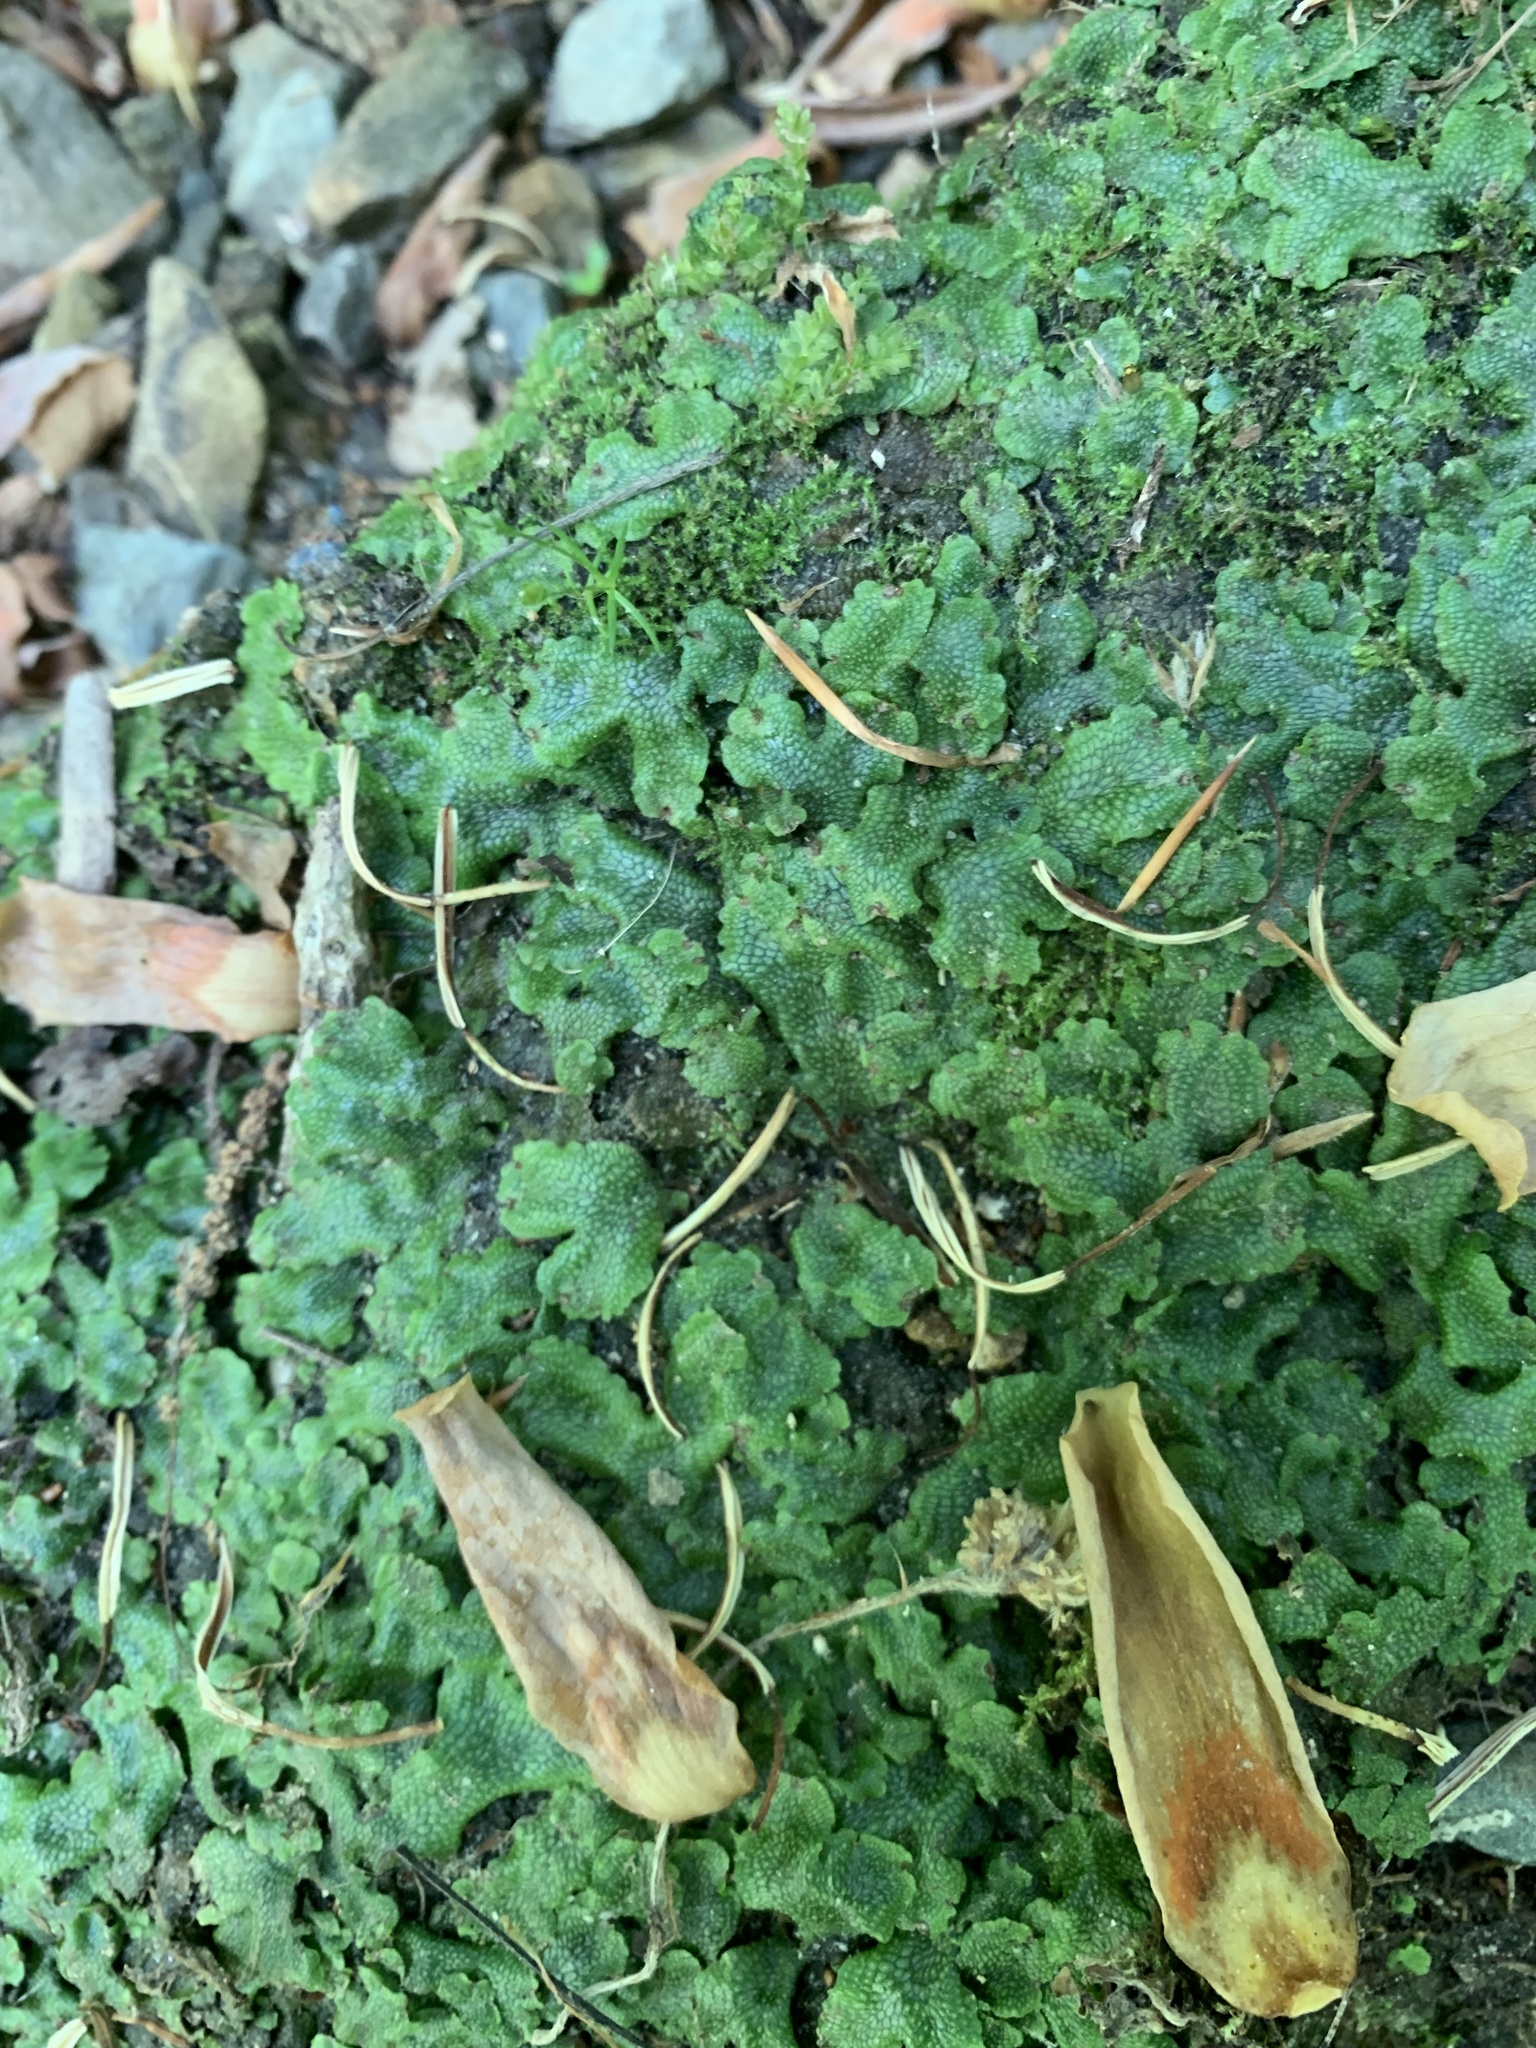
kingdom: Plantae
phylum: Marchantiophyta
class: Marchantiopsida
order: Marchantiales
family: Conocephalaceae
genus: Conocephalum
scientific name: Conocephalum salebrosum
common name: Cat-tongue liverwort
